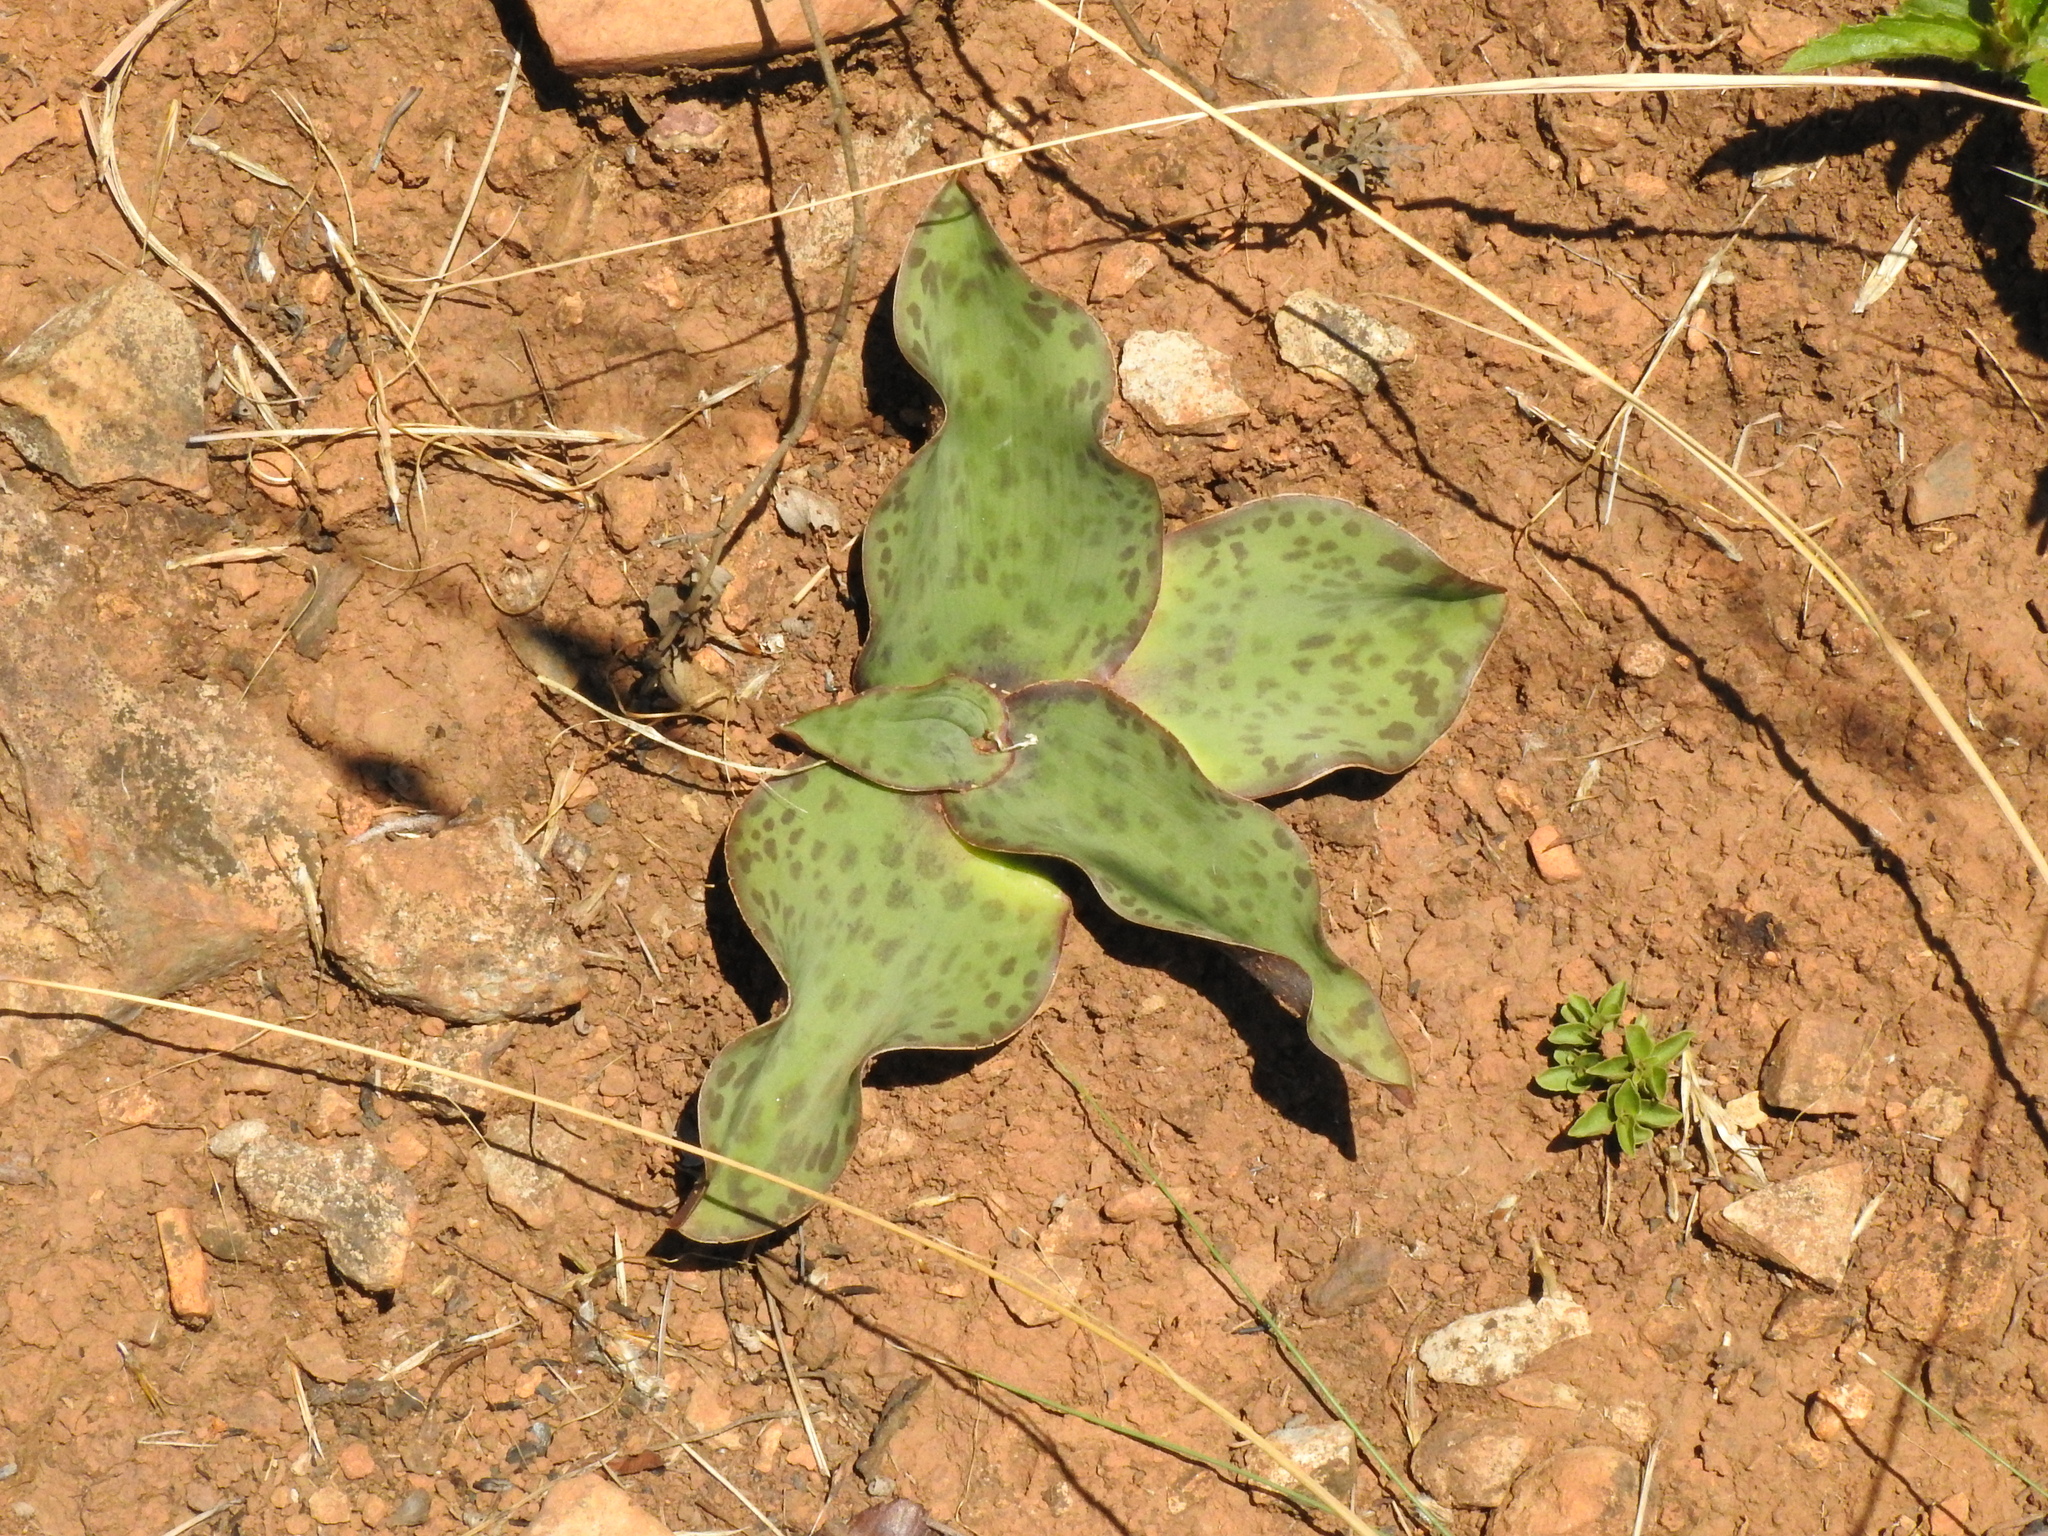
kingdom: Plantae
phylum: Tracheophyta
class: Liliopsida
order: Asparagales
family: Asparagaceae
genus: Ledebouria
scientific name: Ledebouria ovatifolia
